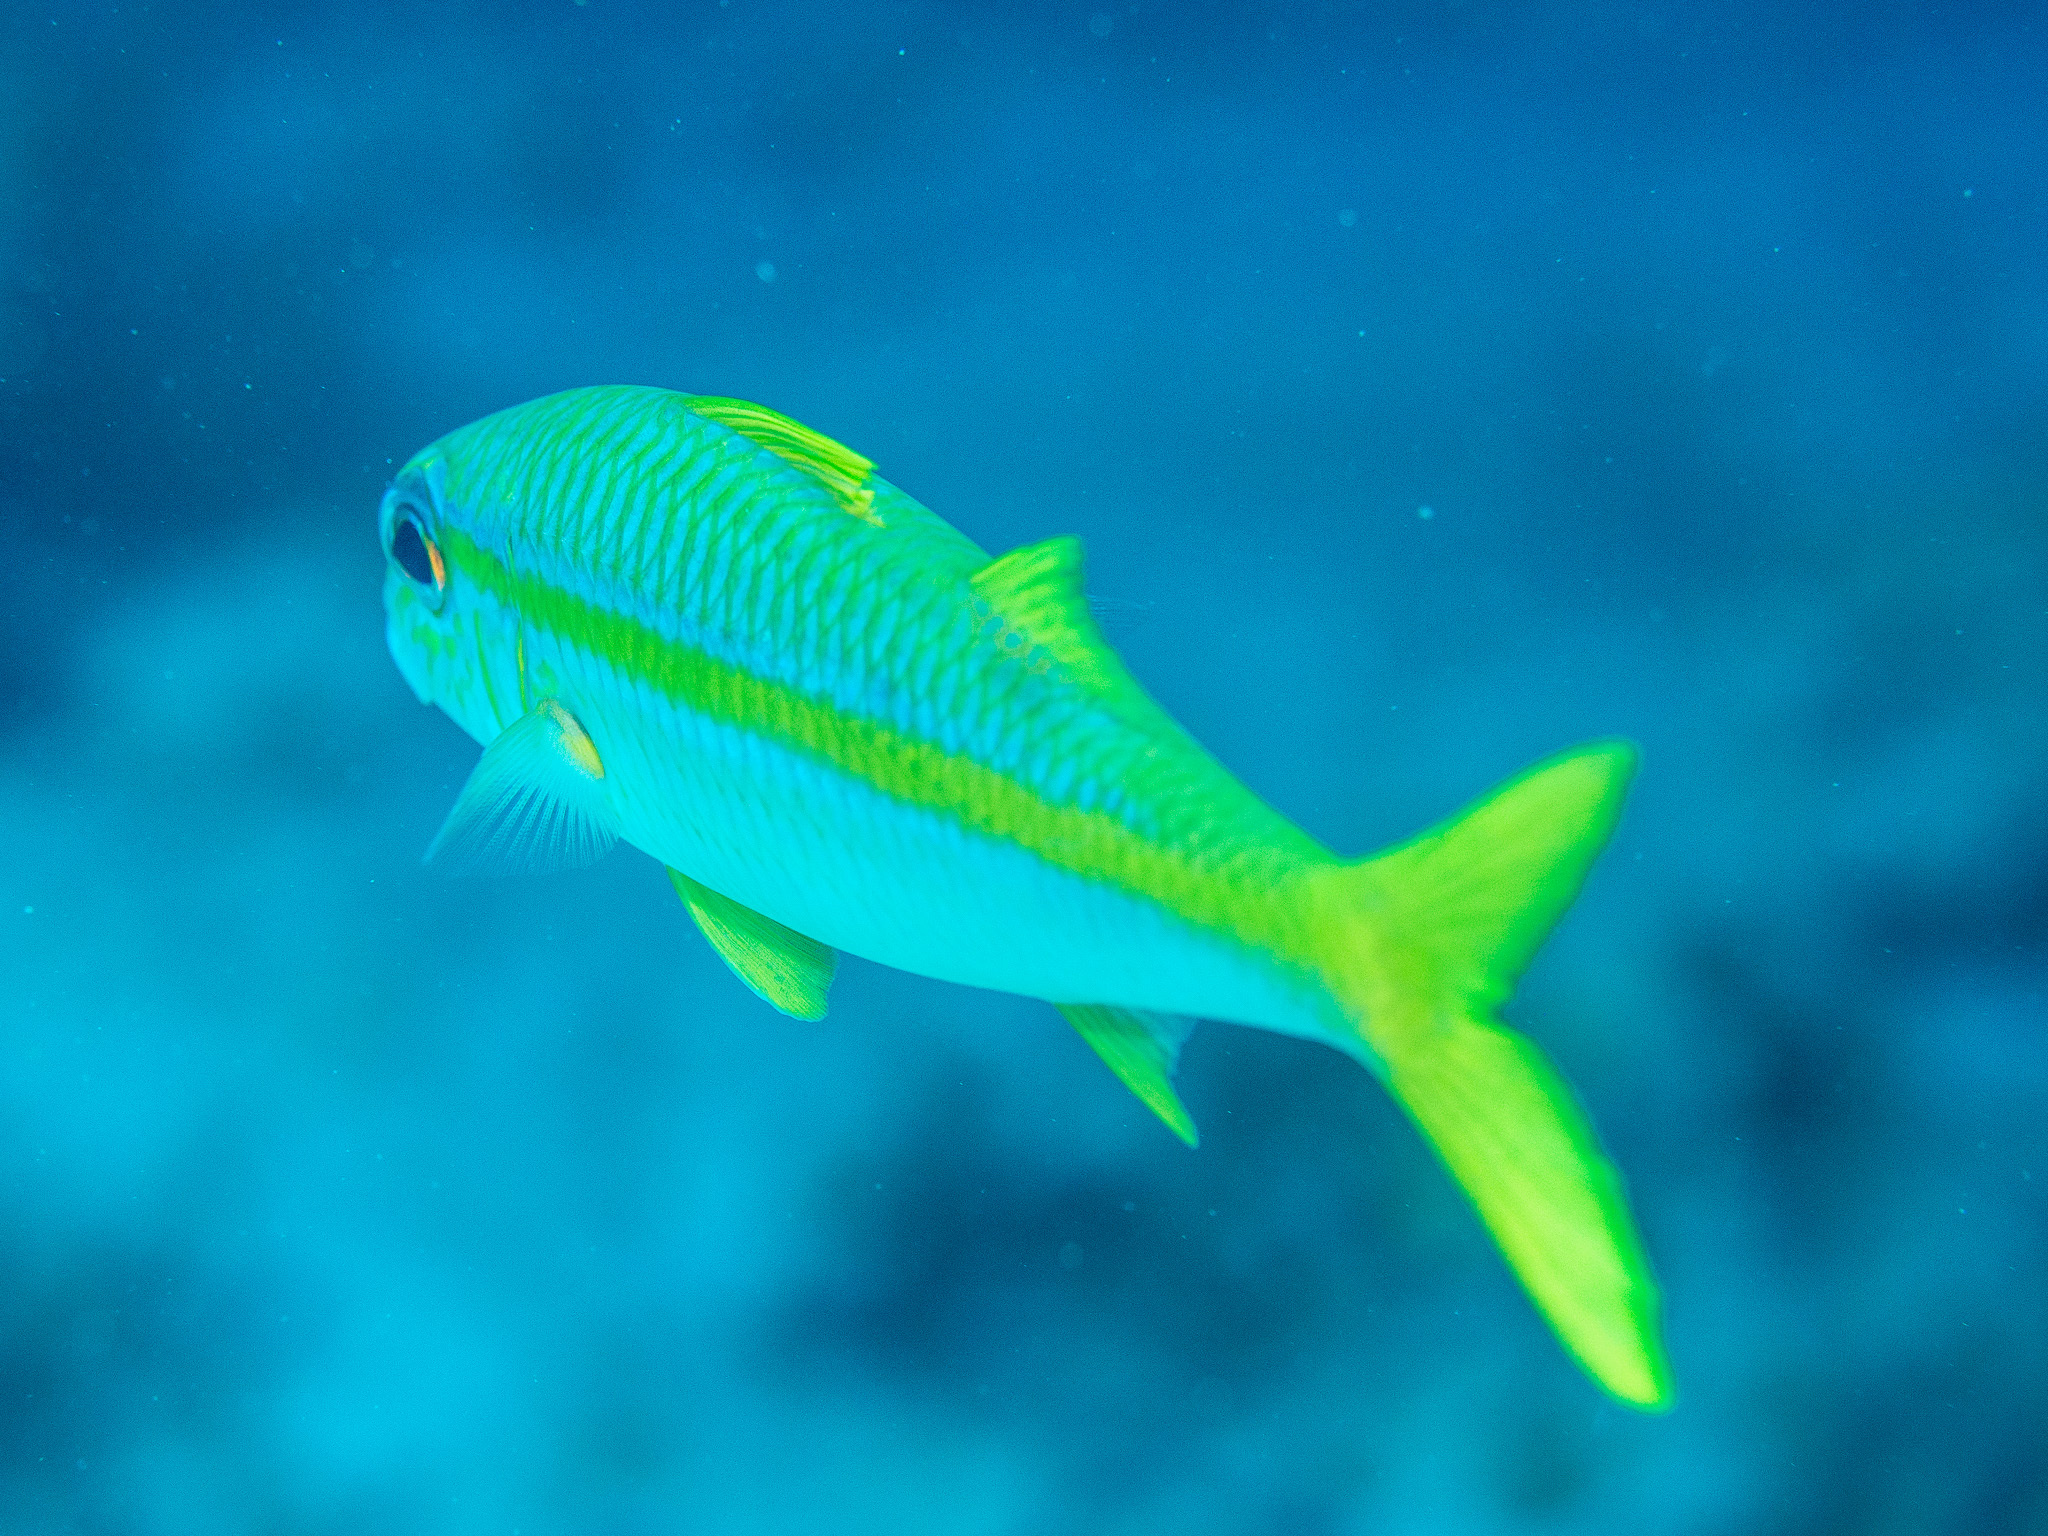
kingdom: Animalia
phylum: Chordata
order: Perciformes
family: Mullidae
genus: Mulloidichthys
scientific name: Mulloidichthys vanicolensis
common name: Yellowfin goatfish
